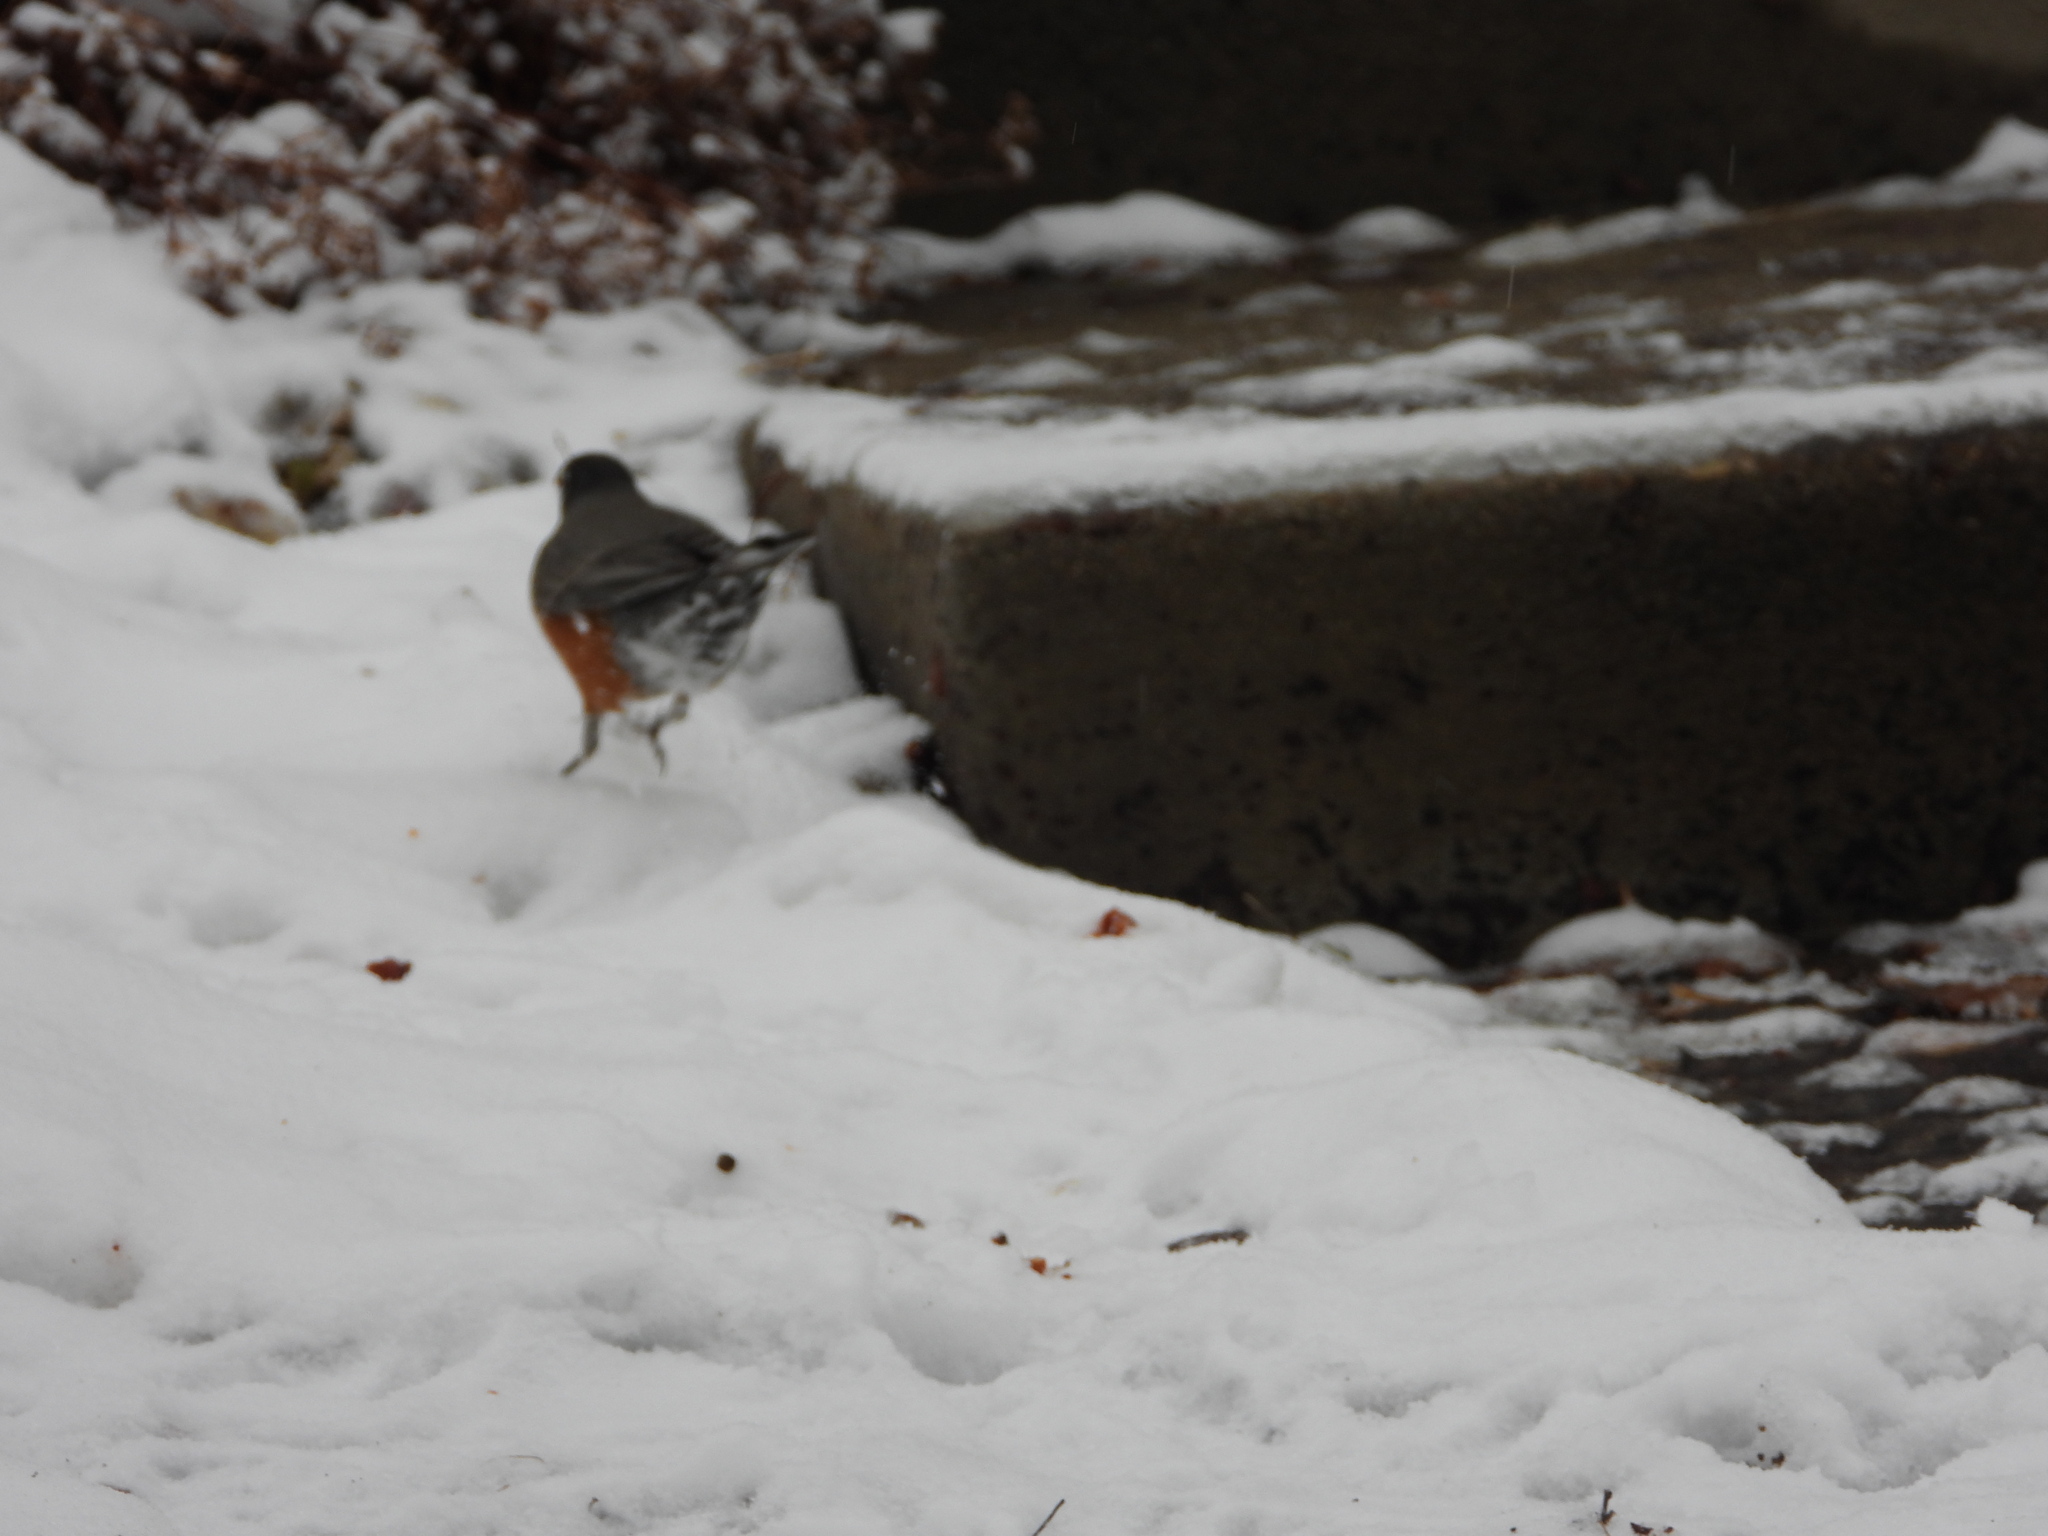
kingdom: Animalia
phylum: Chordata
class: Aves
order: Passeriformes
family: Turdidae
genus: Turdus
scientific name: Turdus migratorius
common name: American robin
